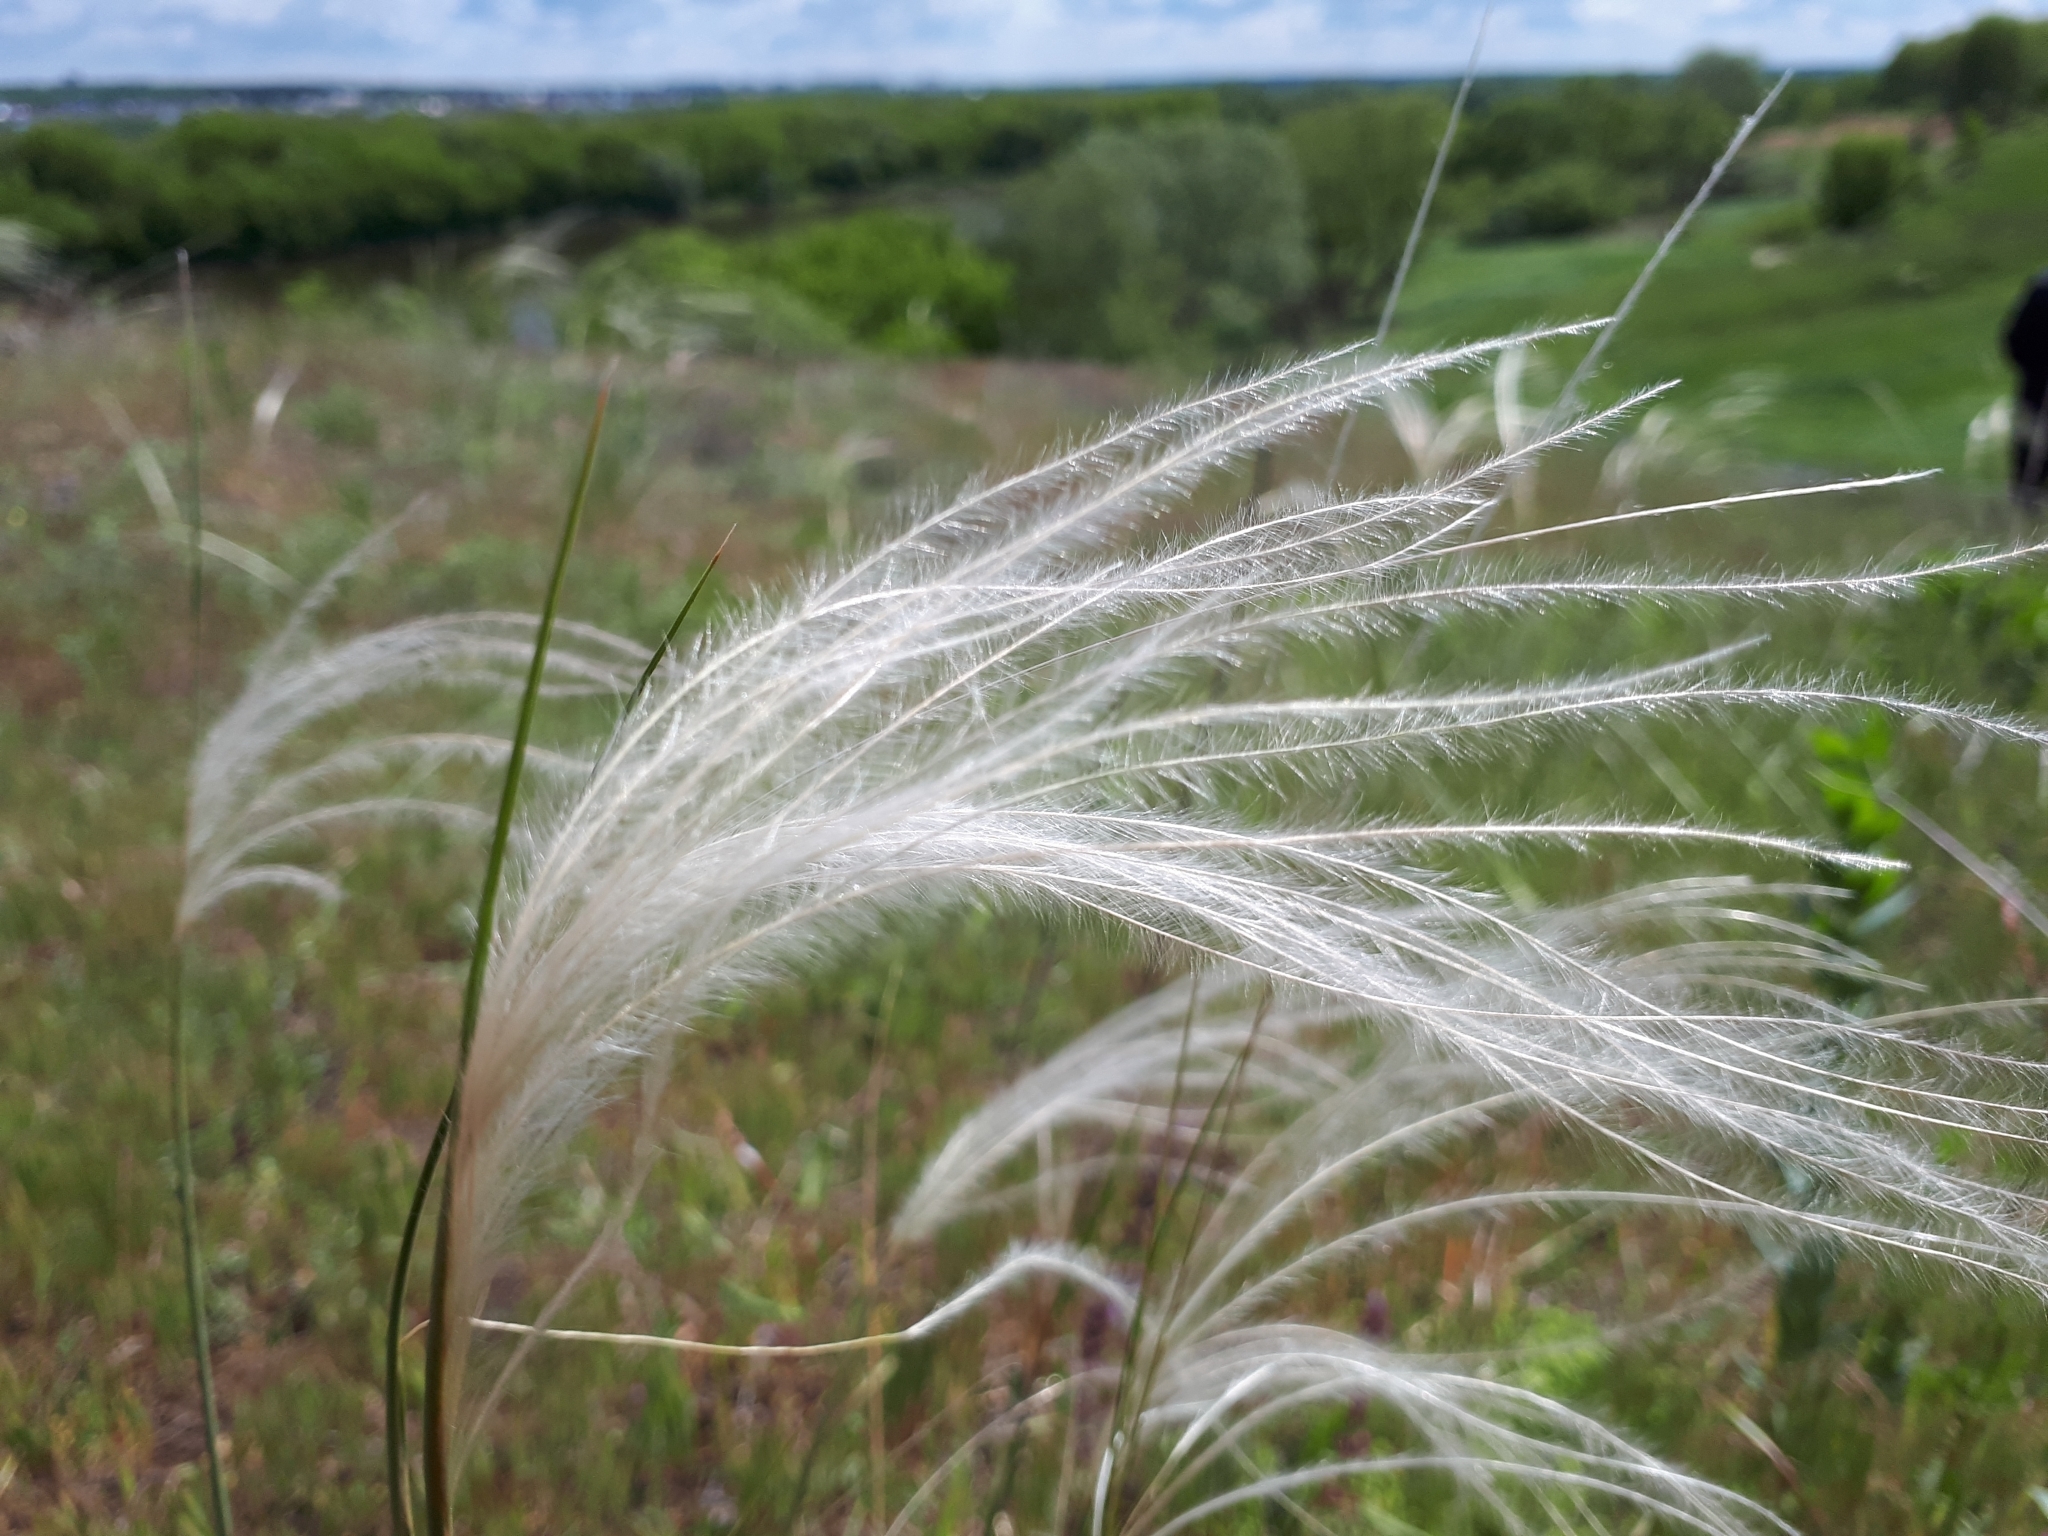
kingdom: Plantae
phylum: Tracheophyta
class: Liliopsida
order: Poales
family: Poaceae
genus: Stipa
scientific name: Stipa pennata
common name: European feather grass
